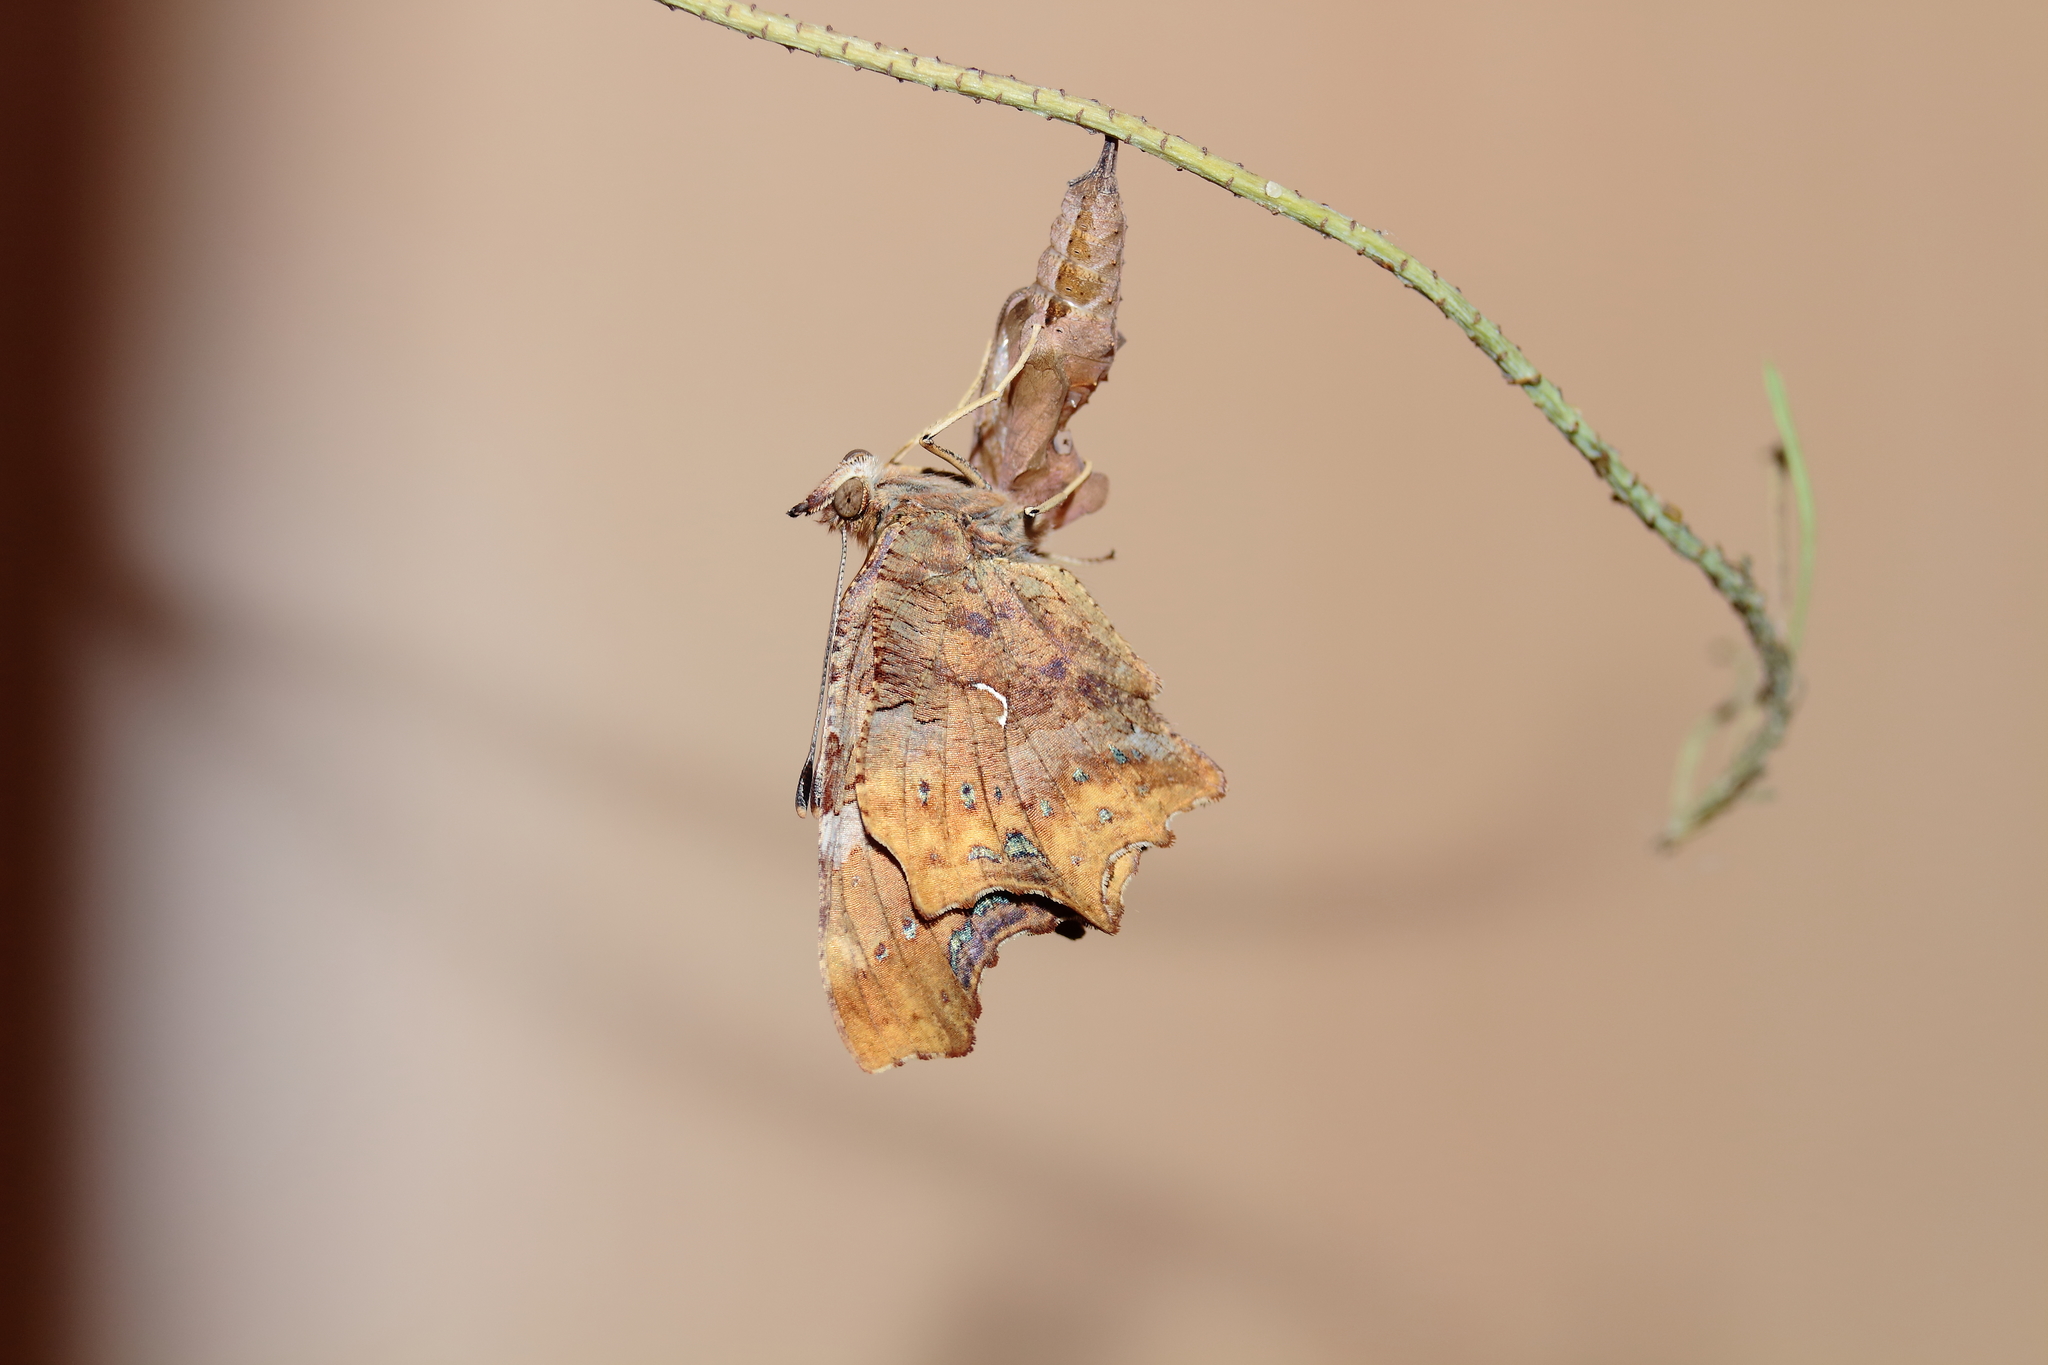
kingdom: Animalia
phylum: Arthropoda
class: Insecta
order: Lepidoptera
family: Nymphalidae
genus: Polygonia
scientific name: Polygonia c-album
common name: Comma
